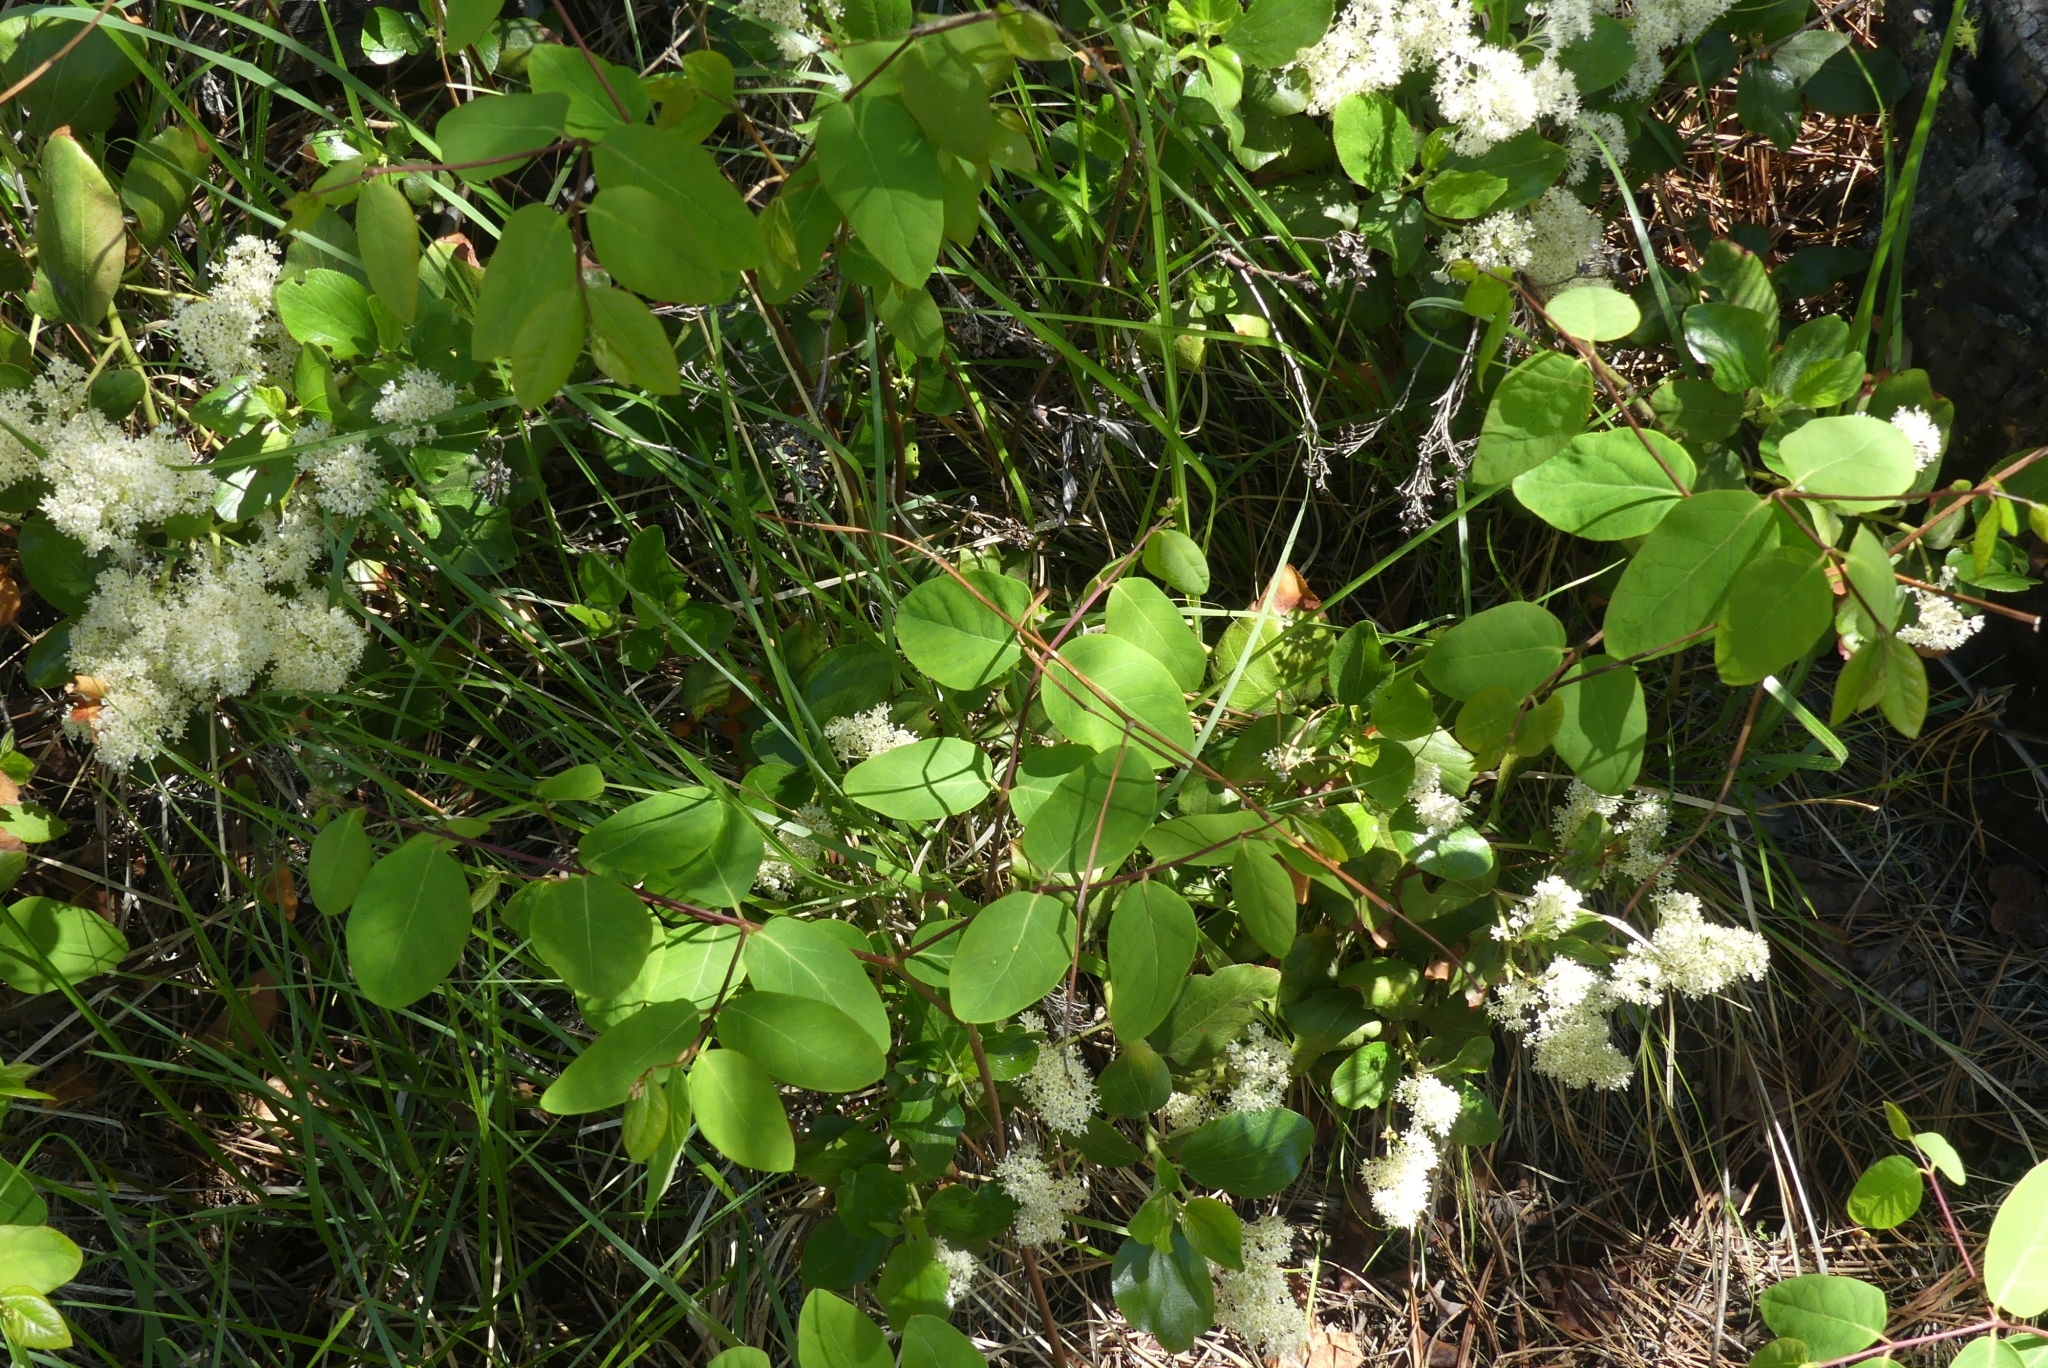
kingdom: Plantae
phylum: Tracheophyta
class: Magnoliopsida
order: Gentianales
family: Apocynaceae
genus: Apocynum
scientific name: Apocynum androsaemifolium
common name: Spreading dogbane
